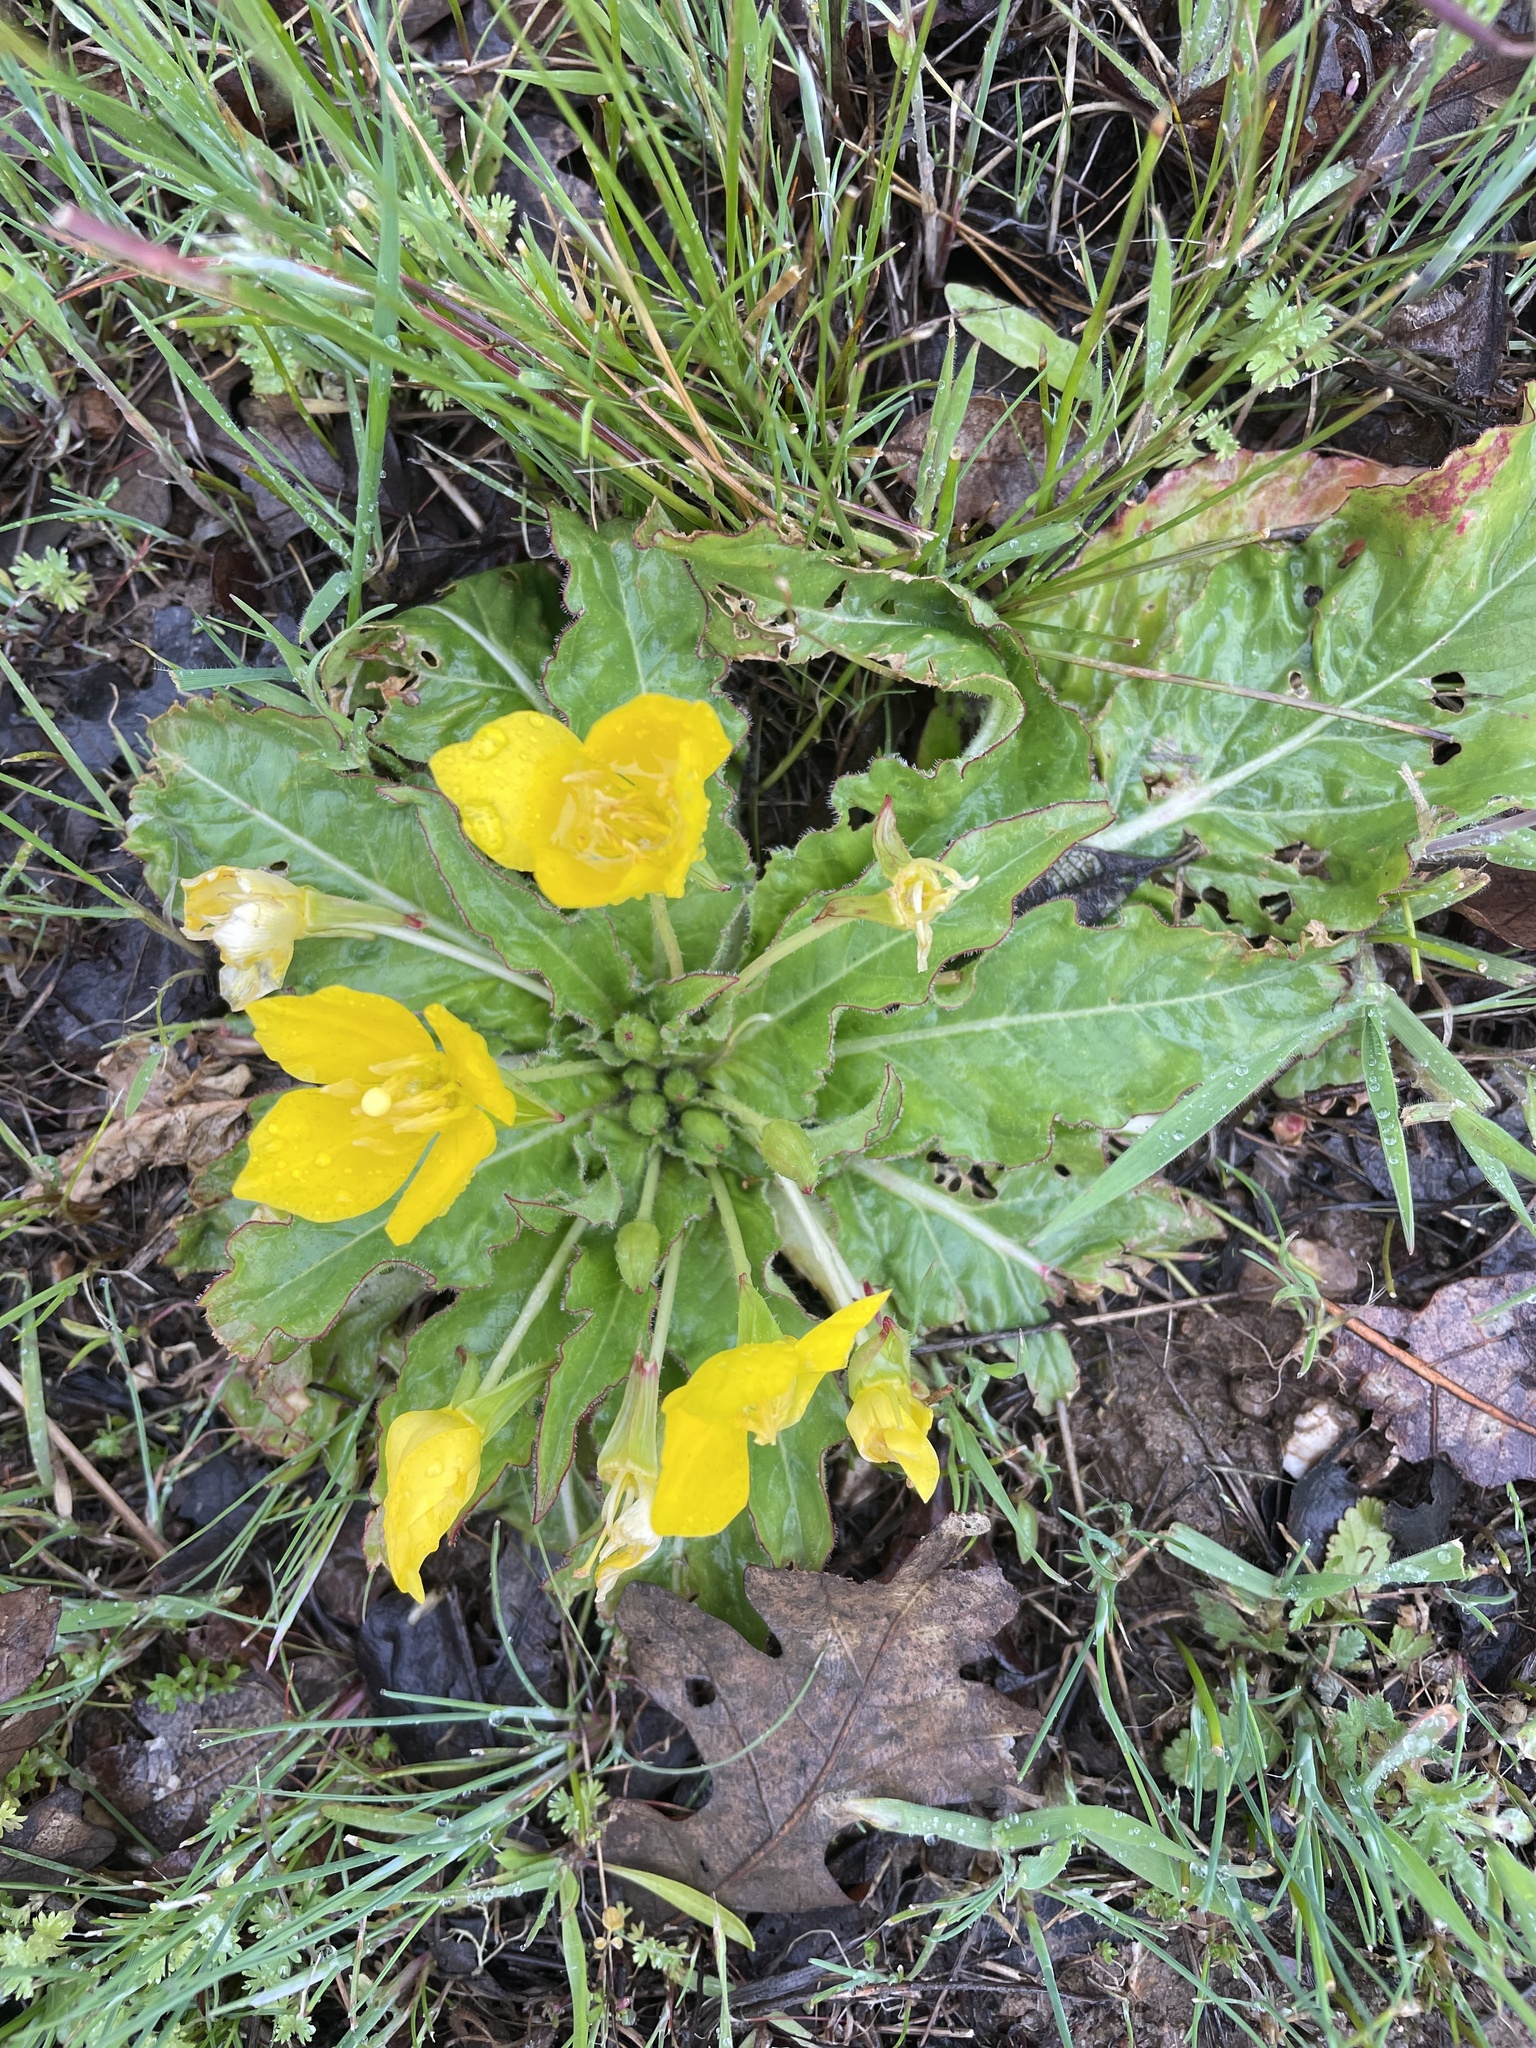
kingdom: Plantae
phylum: Tracheophyta
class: Magnoliopsida
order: Myrtales
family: Onagraceae
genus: Taraxia
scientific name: Taraxia ovata
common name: Goldeneggs
